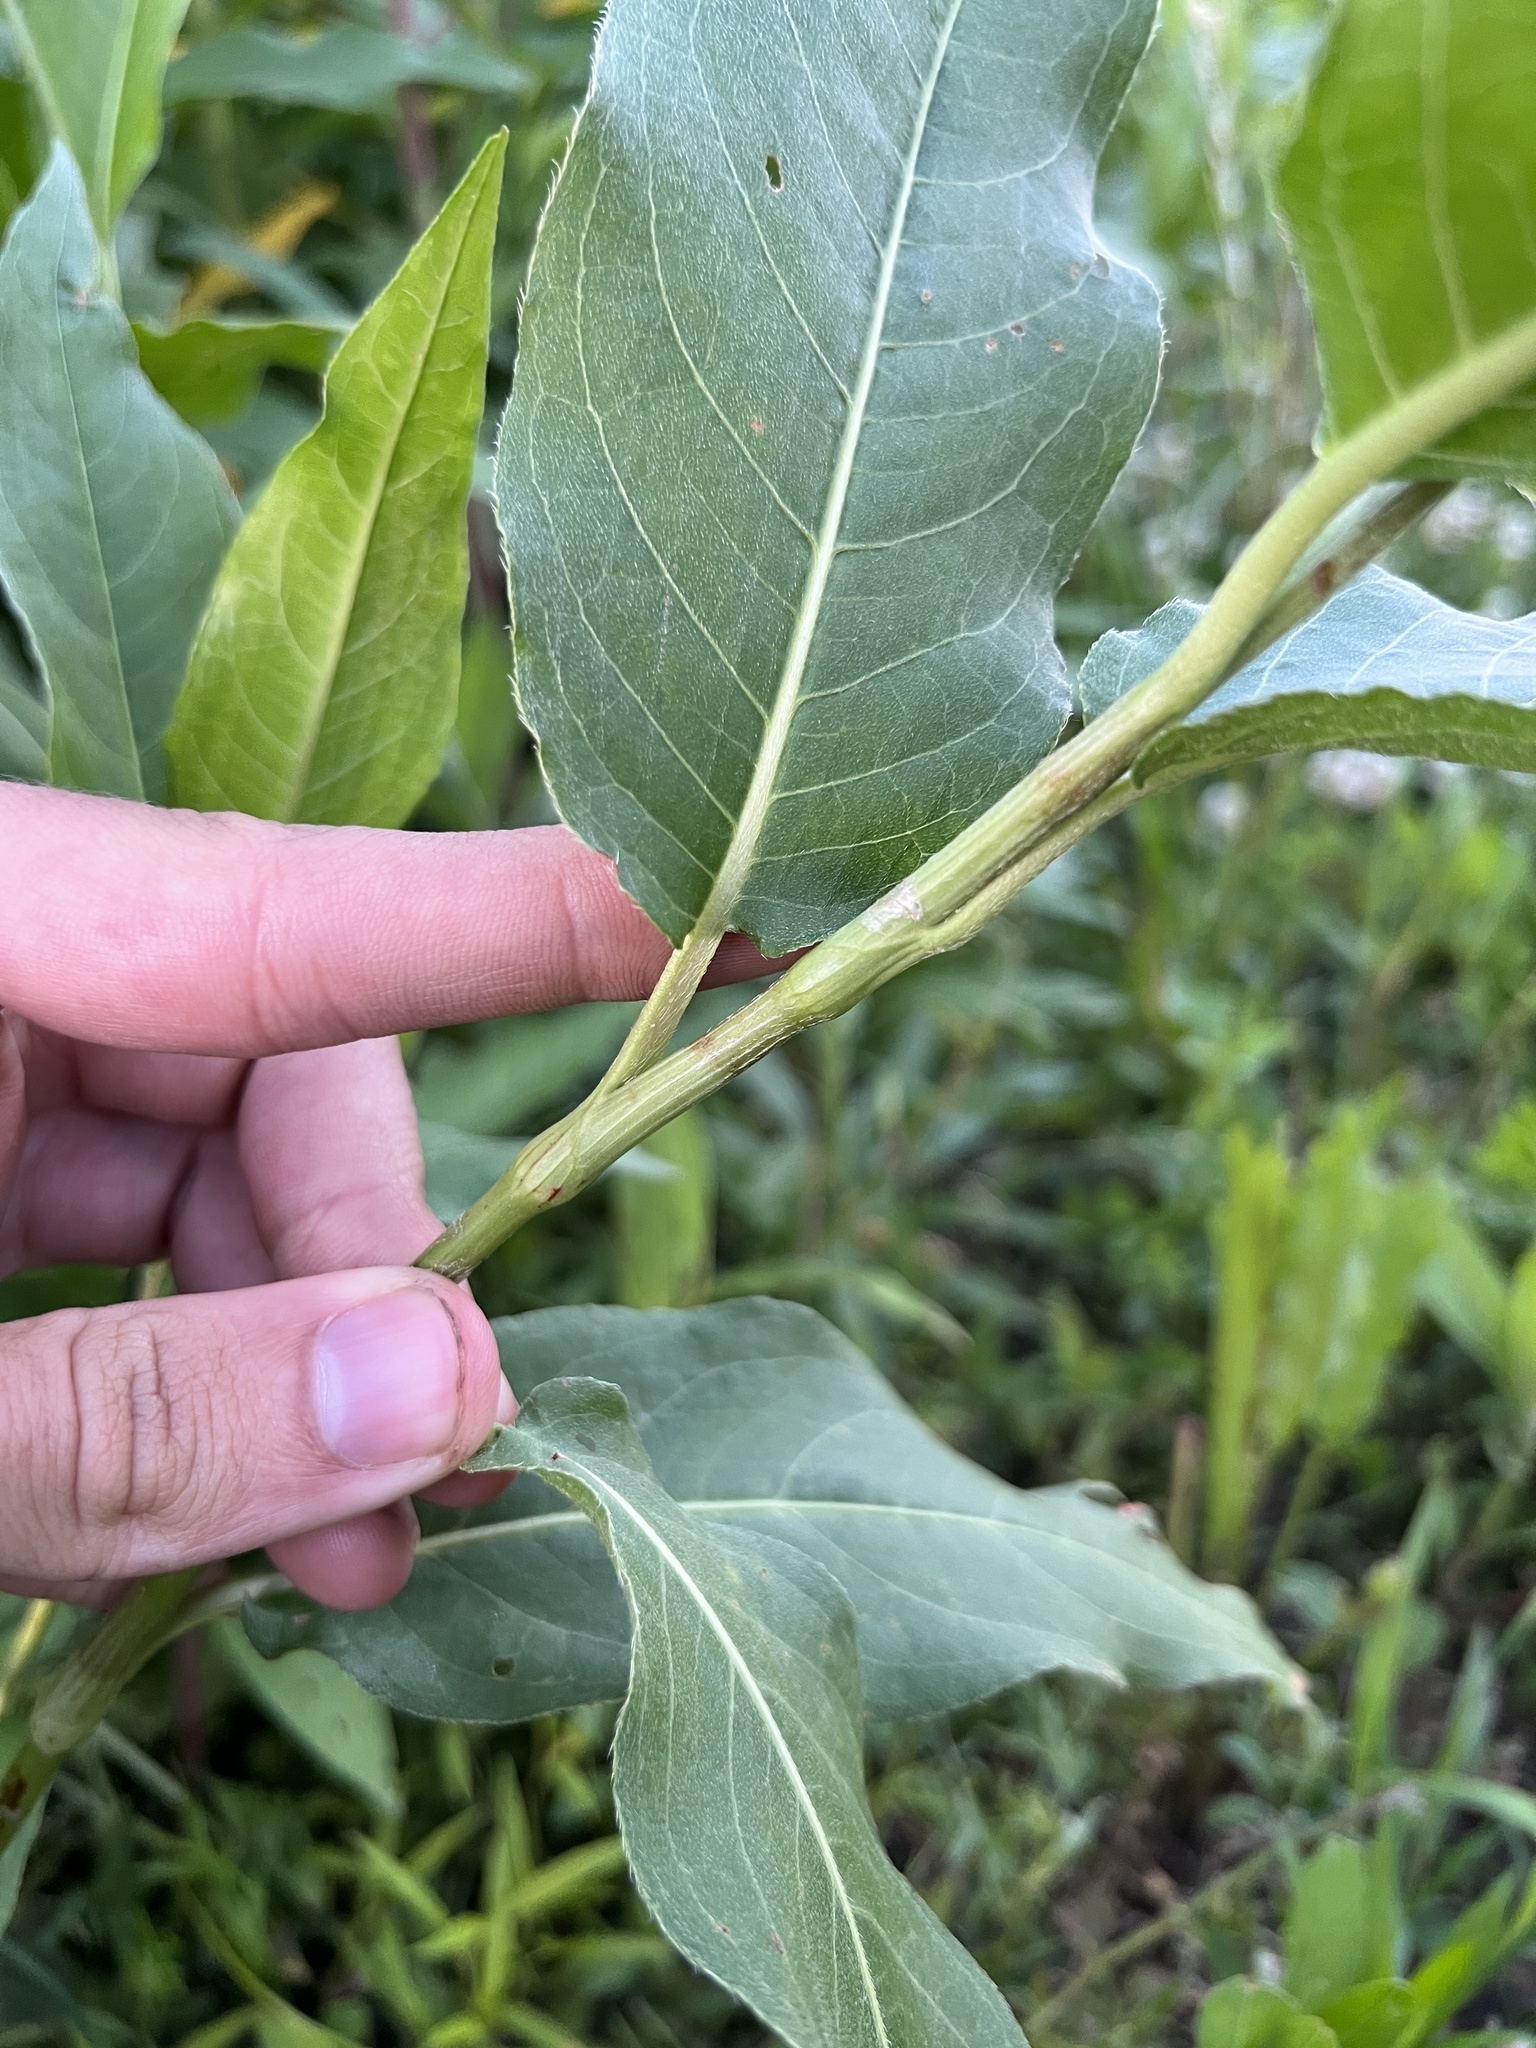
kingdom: Plantae
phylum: Tracheophyta
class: Magnoliopsida
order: Caryophyllales
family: Polygonaceae
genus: Persicaria
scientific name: Persicaria amphibia
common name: Amphibious bistort
